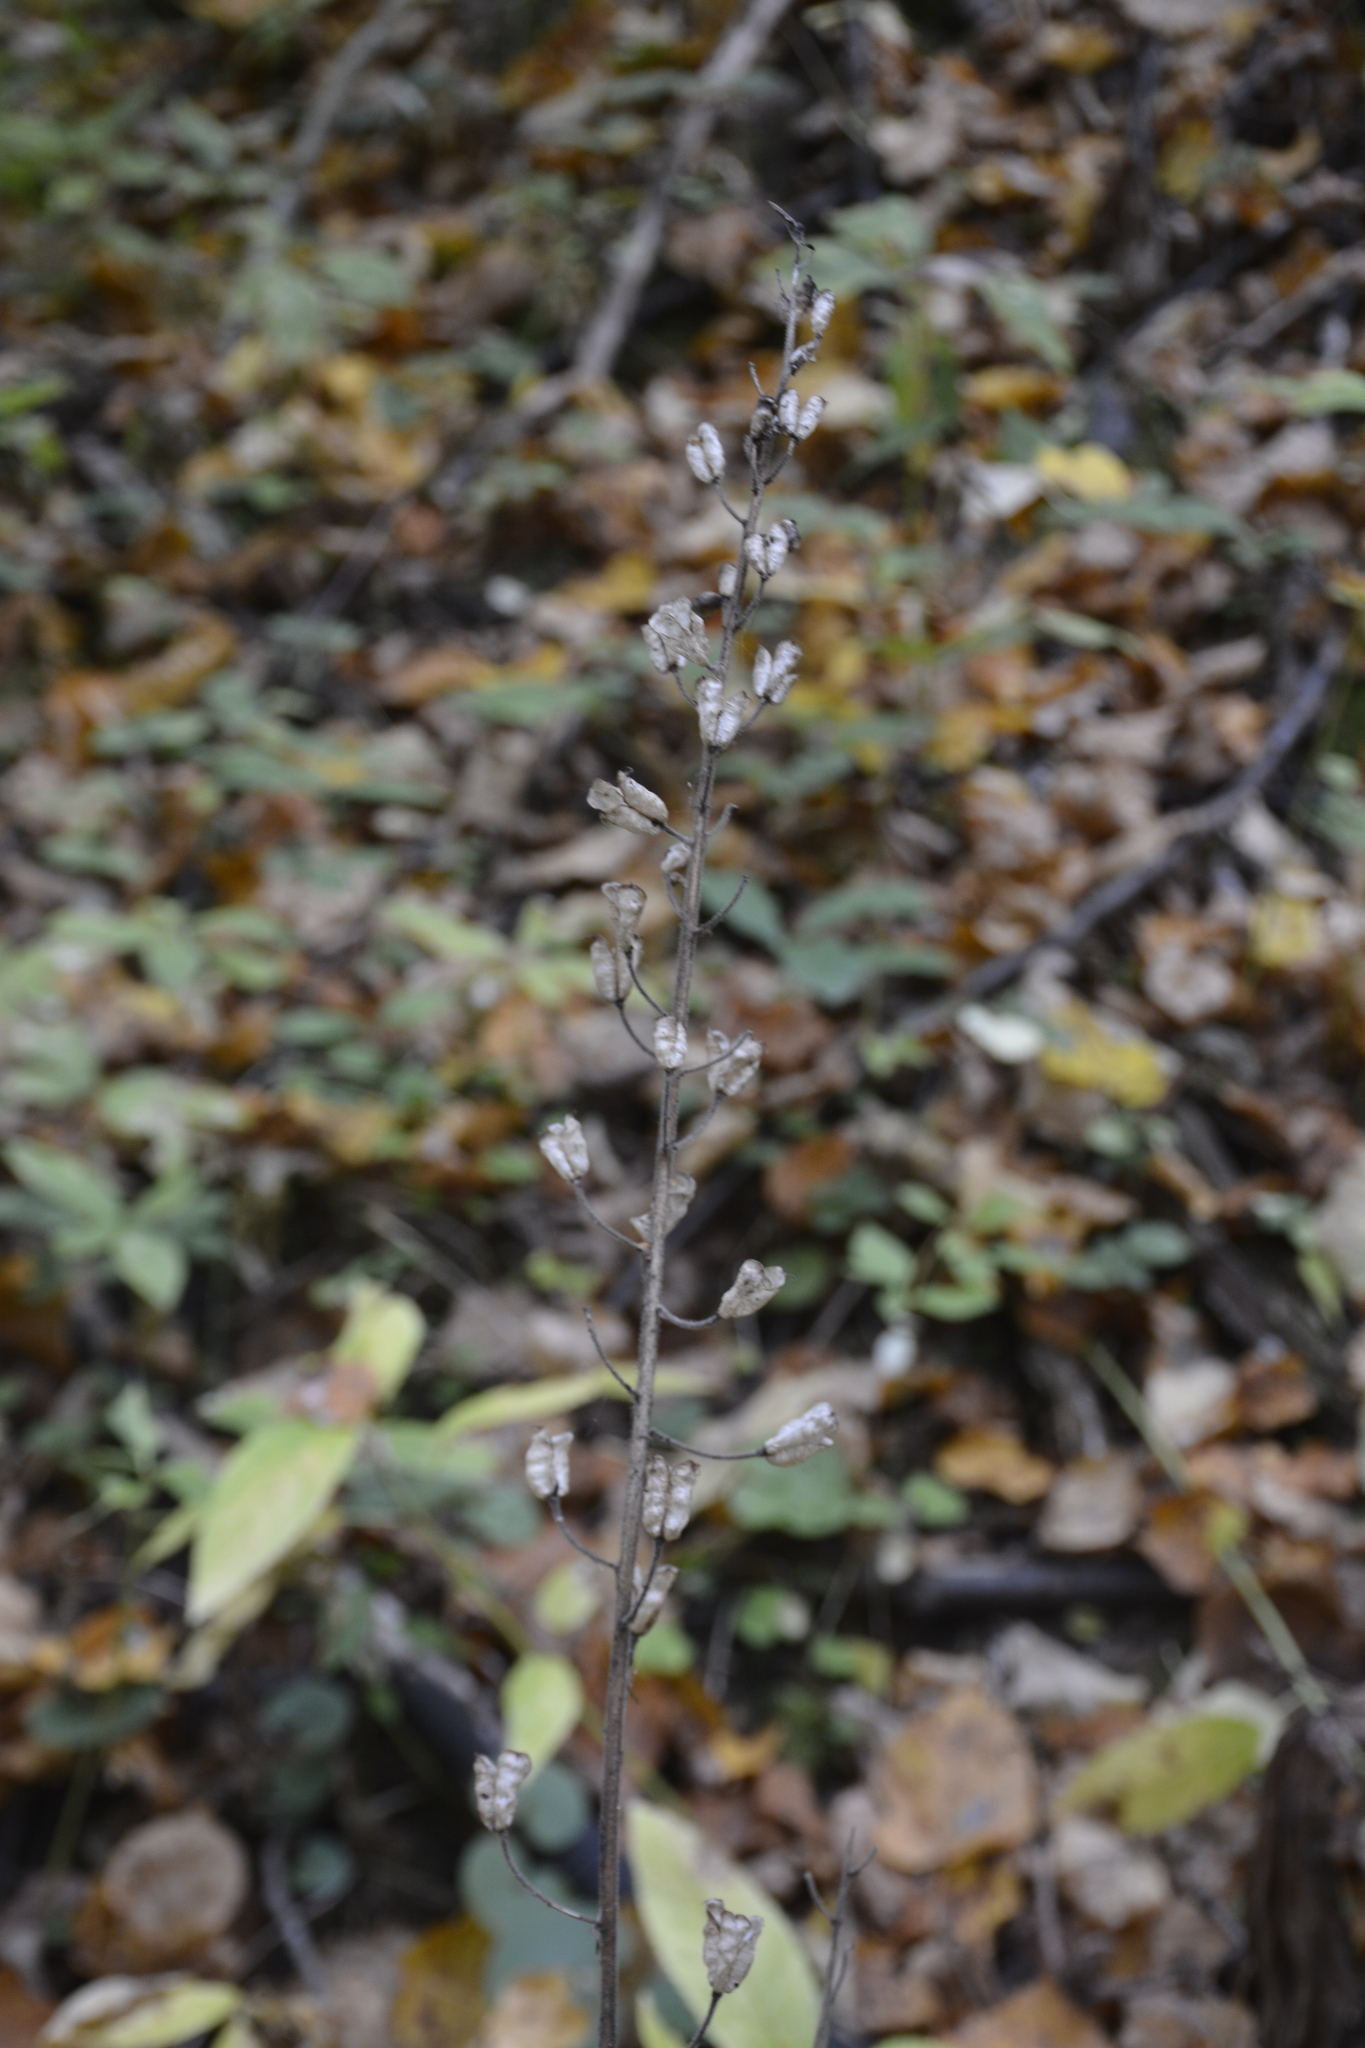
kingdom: Plantae
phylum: Tracheophyta
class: Magnoliopsida
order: Ranunculales
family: Ranunculaceae
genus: Aconitum
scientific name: Aconitum septentrionale
